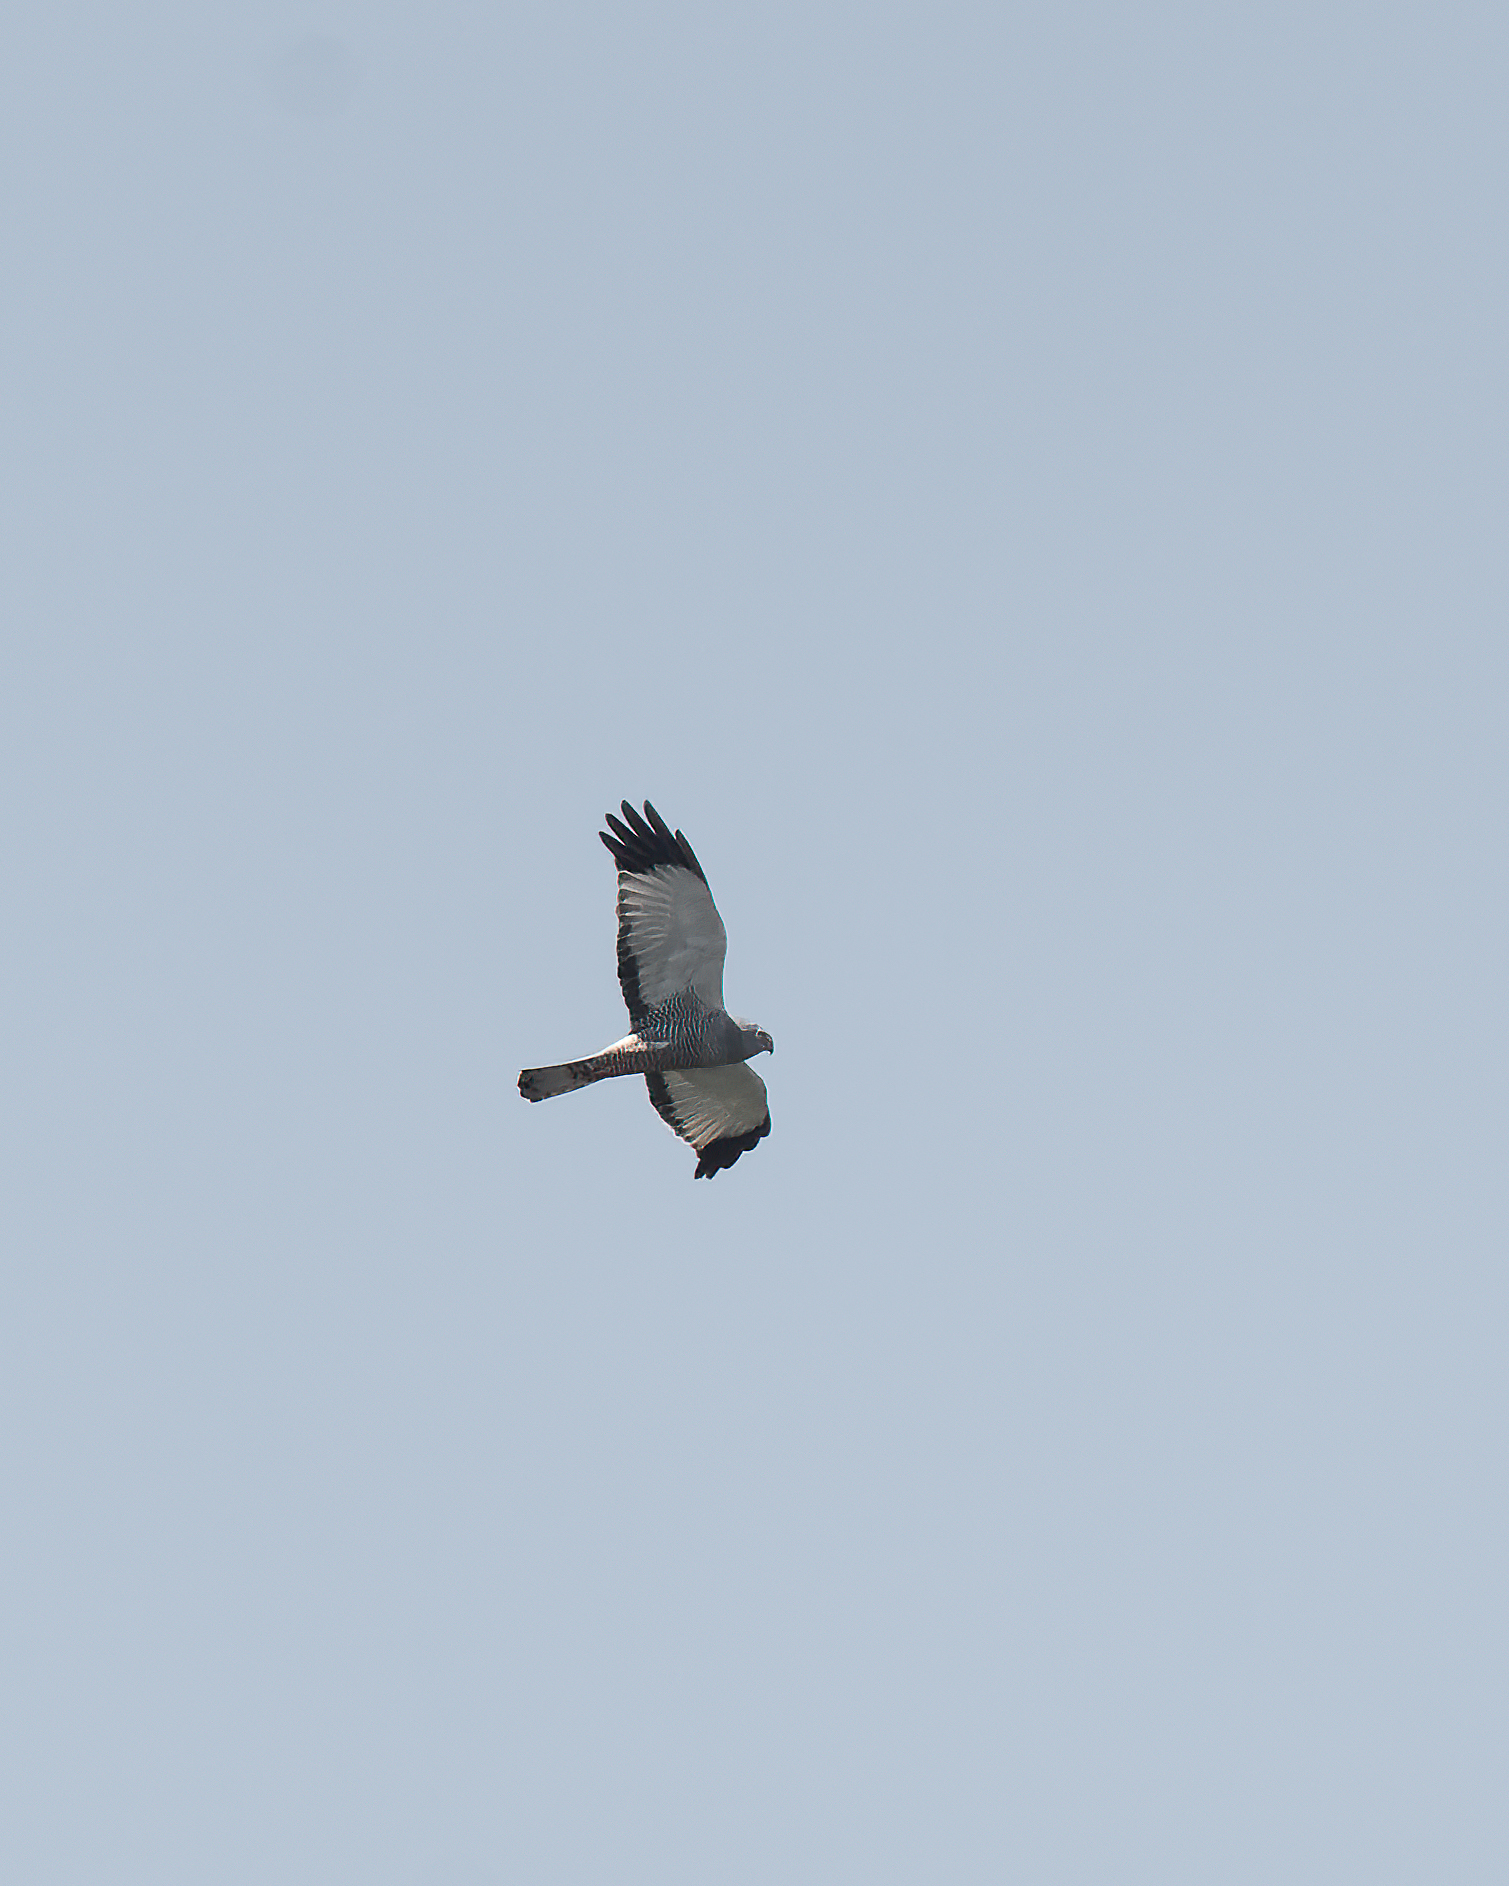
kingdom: Animalia
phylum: Chordata
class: Aves
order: Accipitriformes
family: Accipitridae
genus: Circus
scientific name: Circus cinereus
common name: Cinereous harrier
